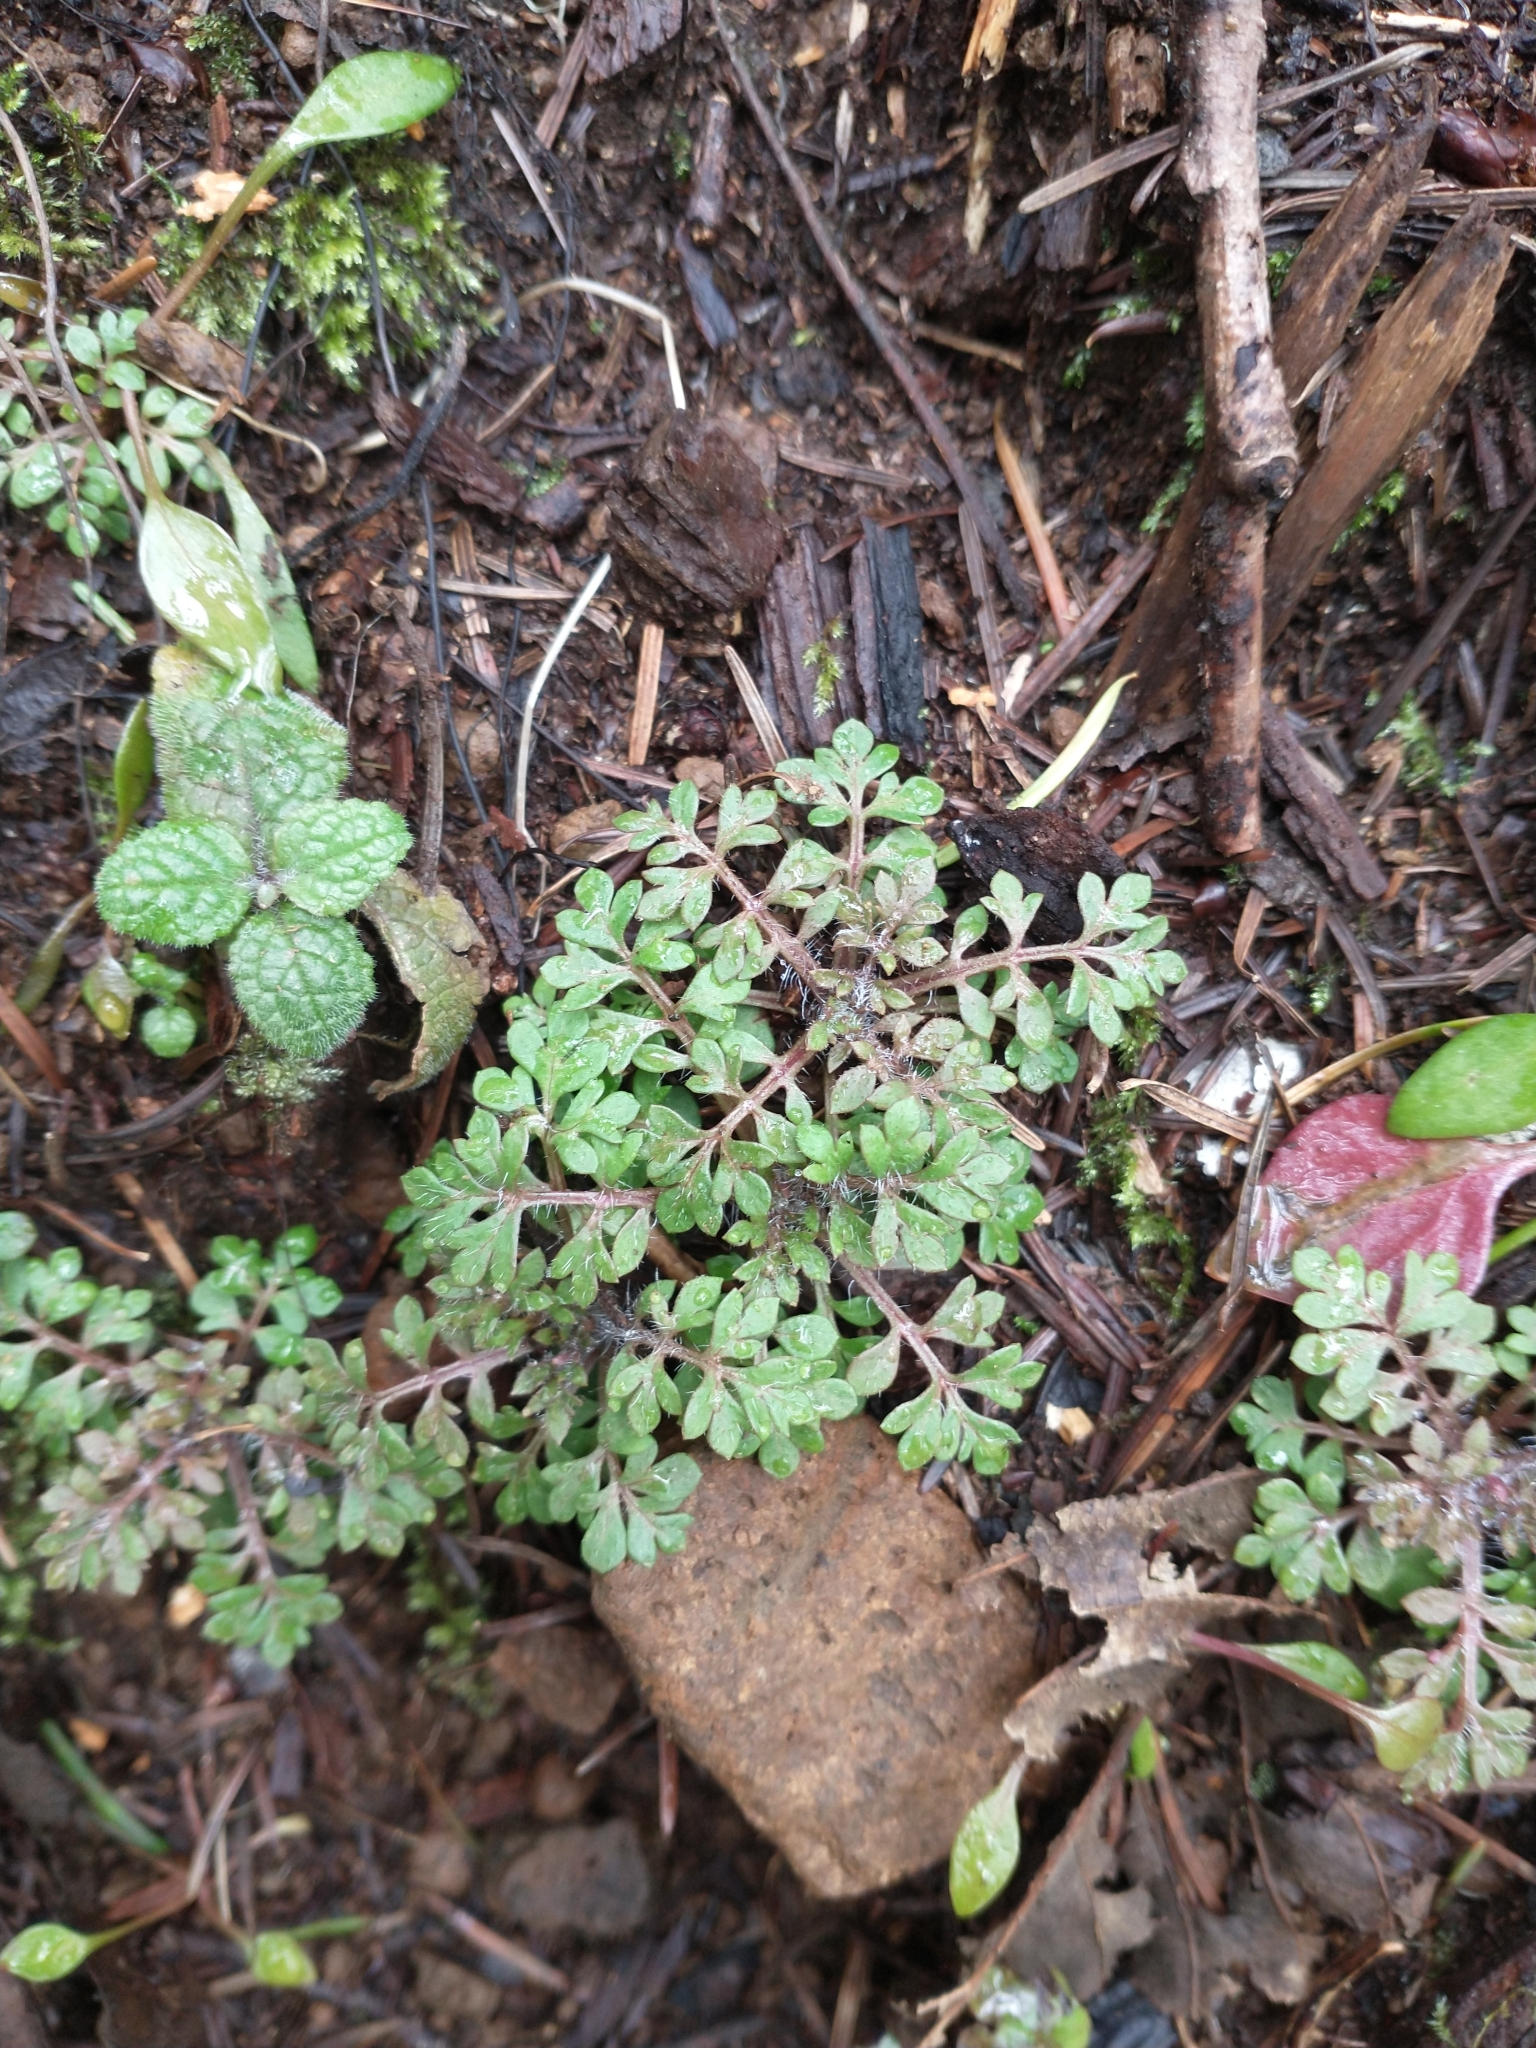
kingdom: Plantae
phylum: Tracheophyta
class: Magnoliopsida
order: Ericales
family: Polemoniaceae
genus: Collomia
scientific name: Collomia heterophylla
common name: Variable-leaved collomia
